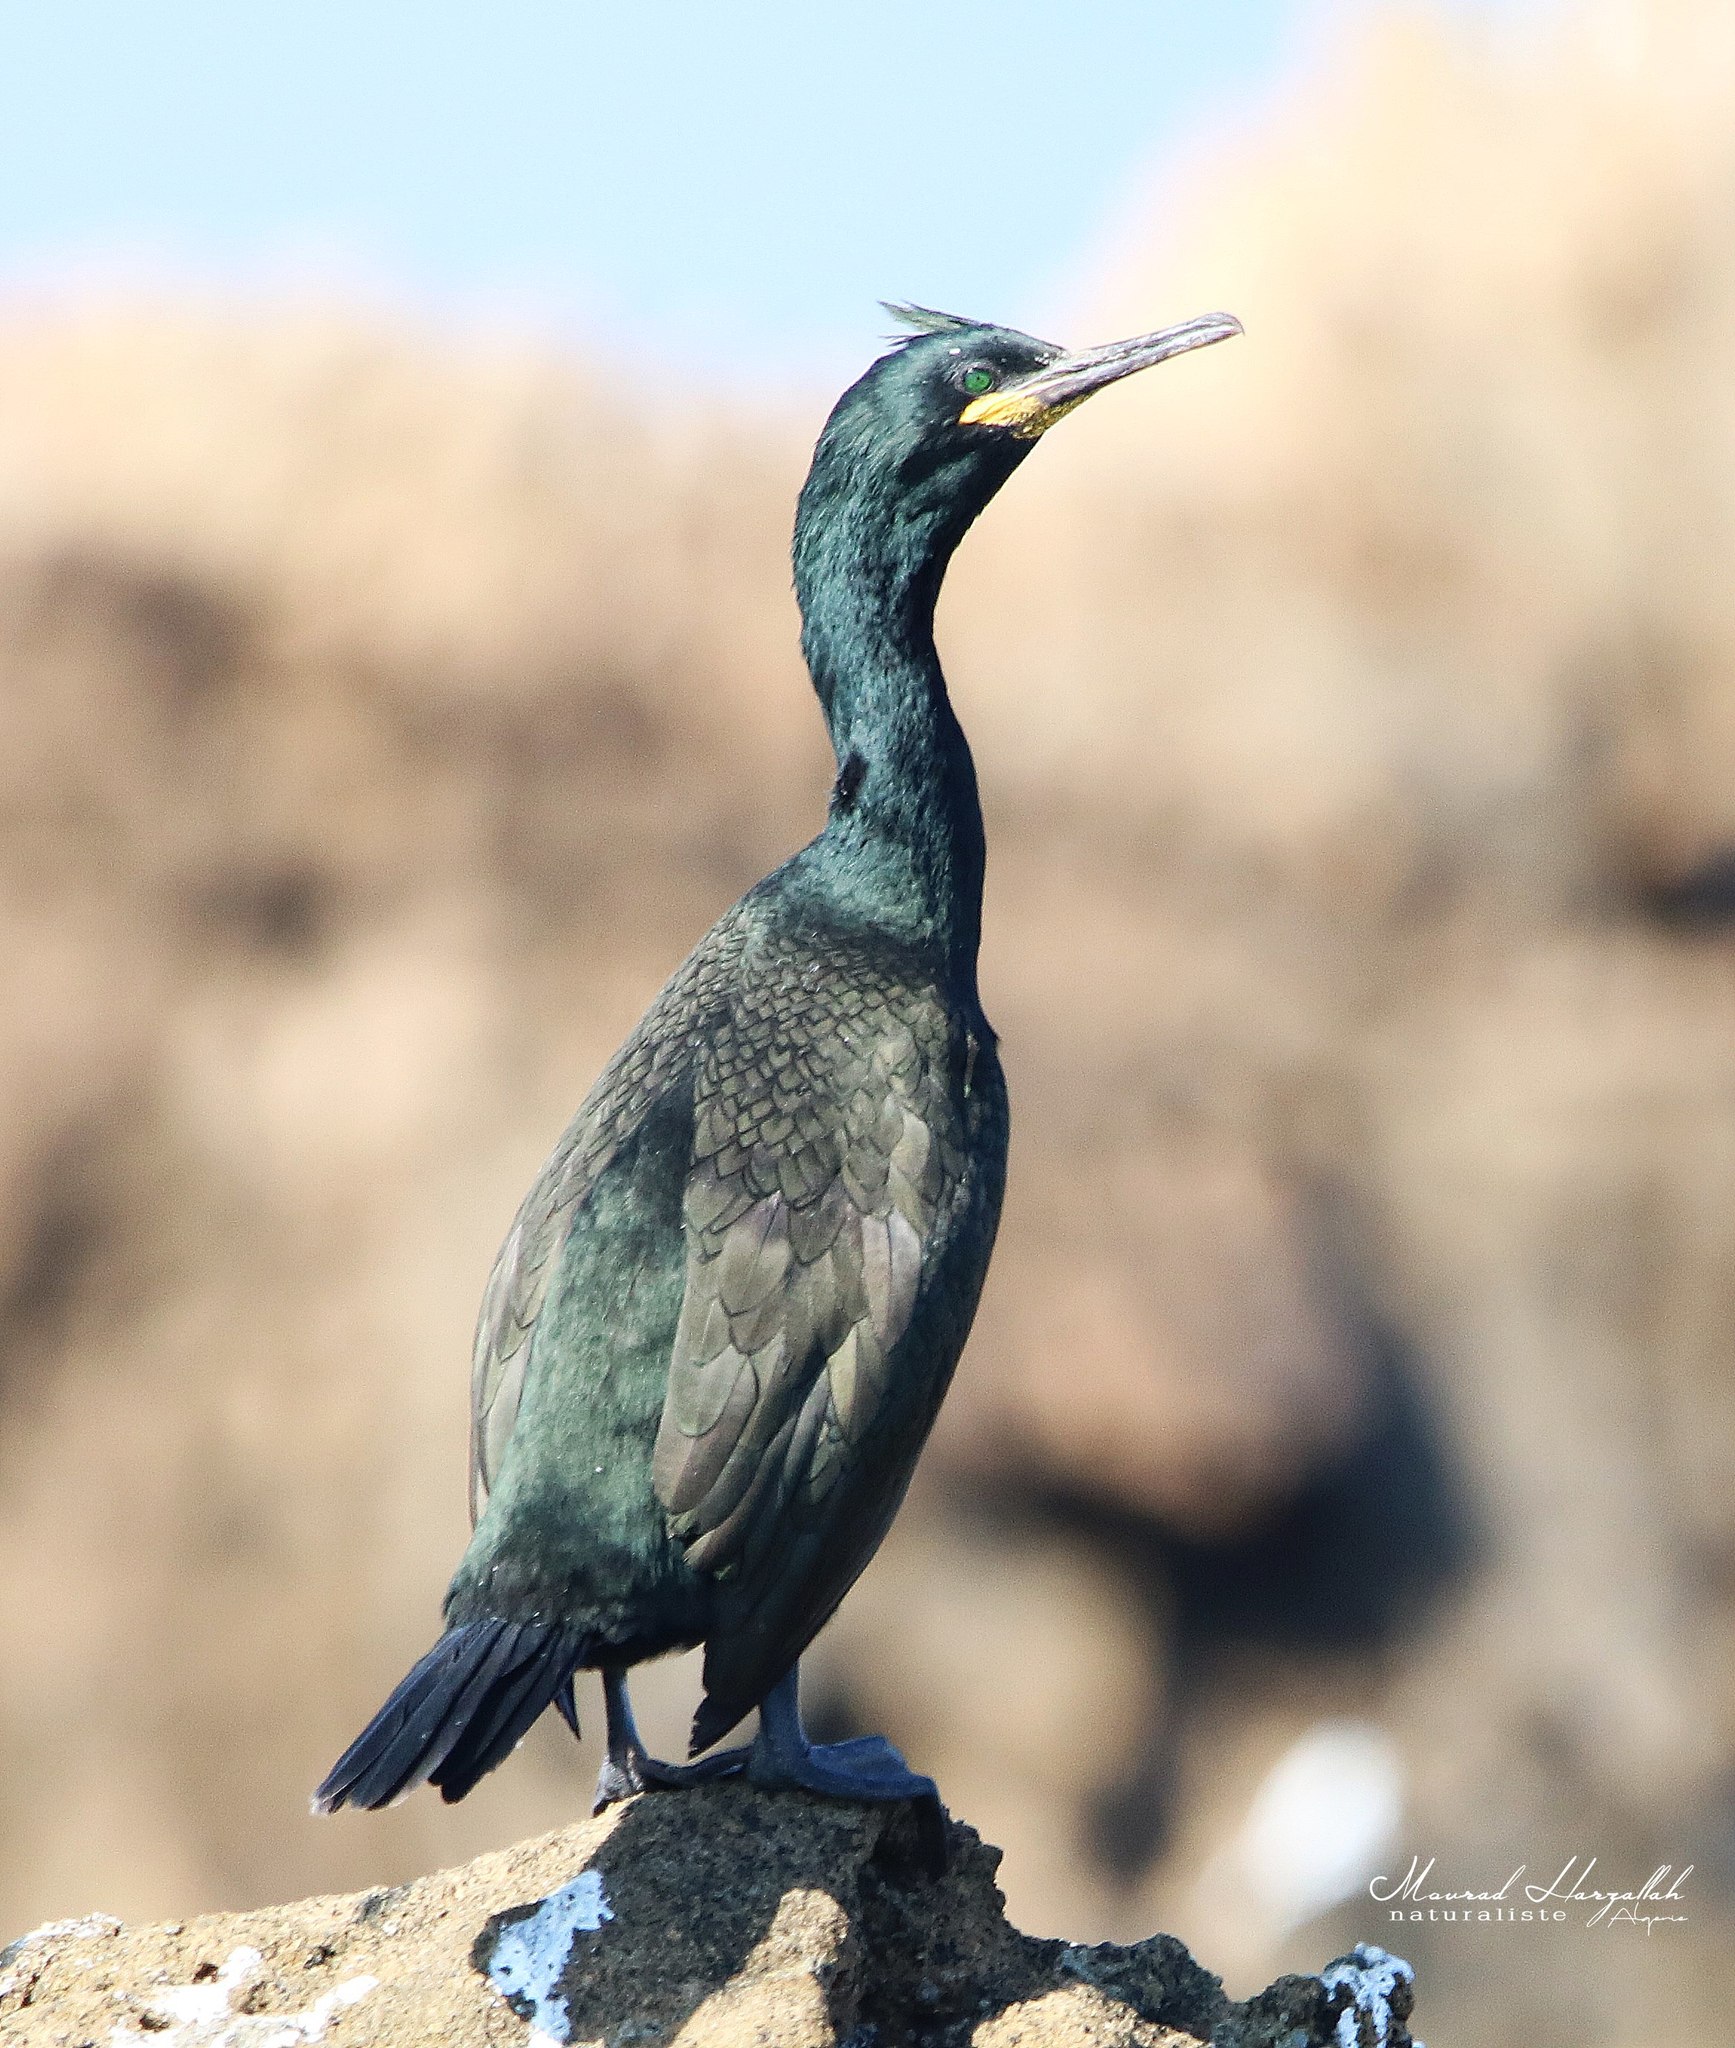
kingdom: Animalia
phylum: Chordata
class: Aves
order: Suliformes
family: Phalacrocoracidae
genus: Phalacrocorax
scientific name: Phalacrocorax aristotelis
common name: European shag
